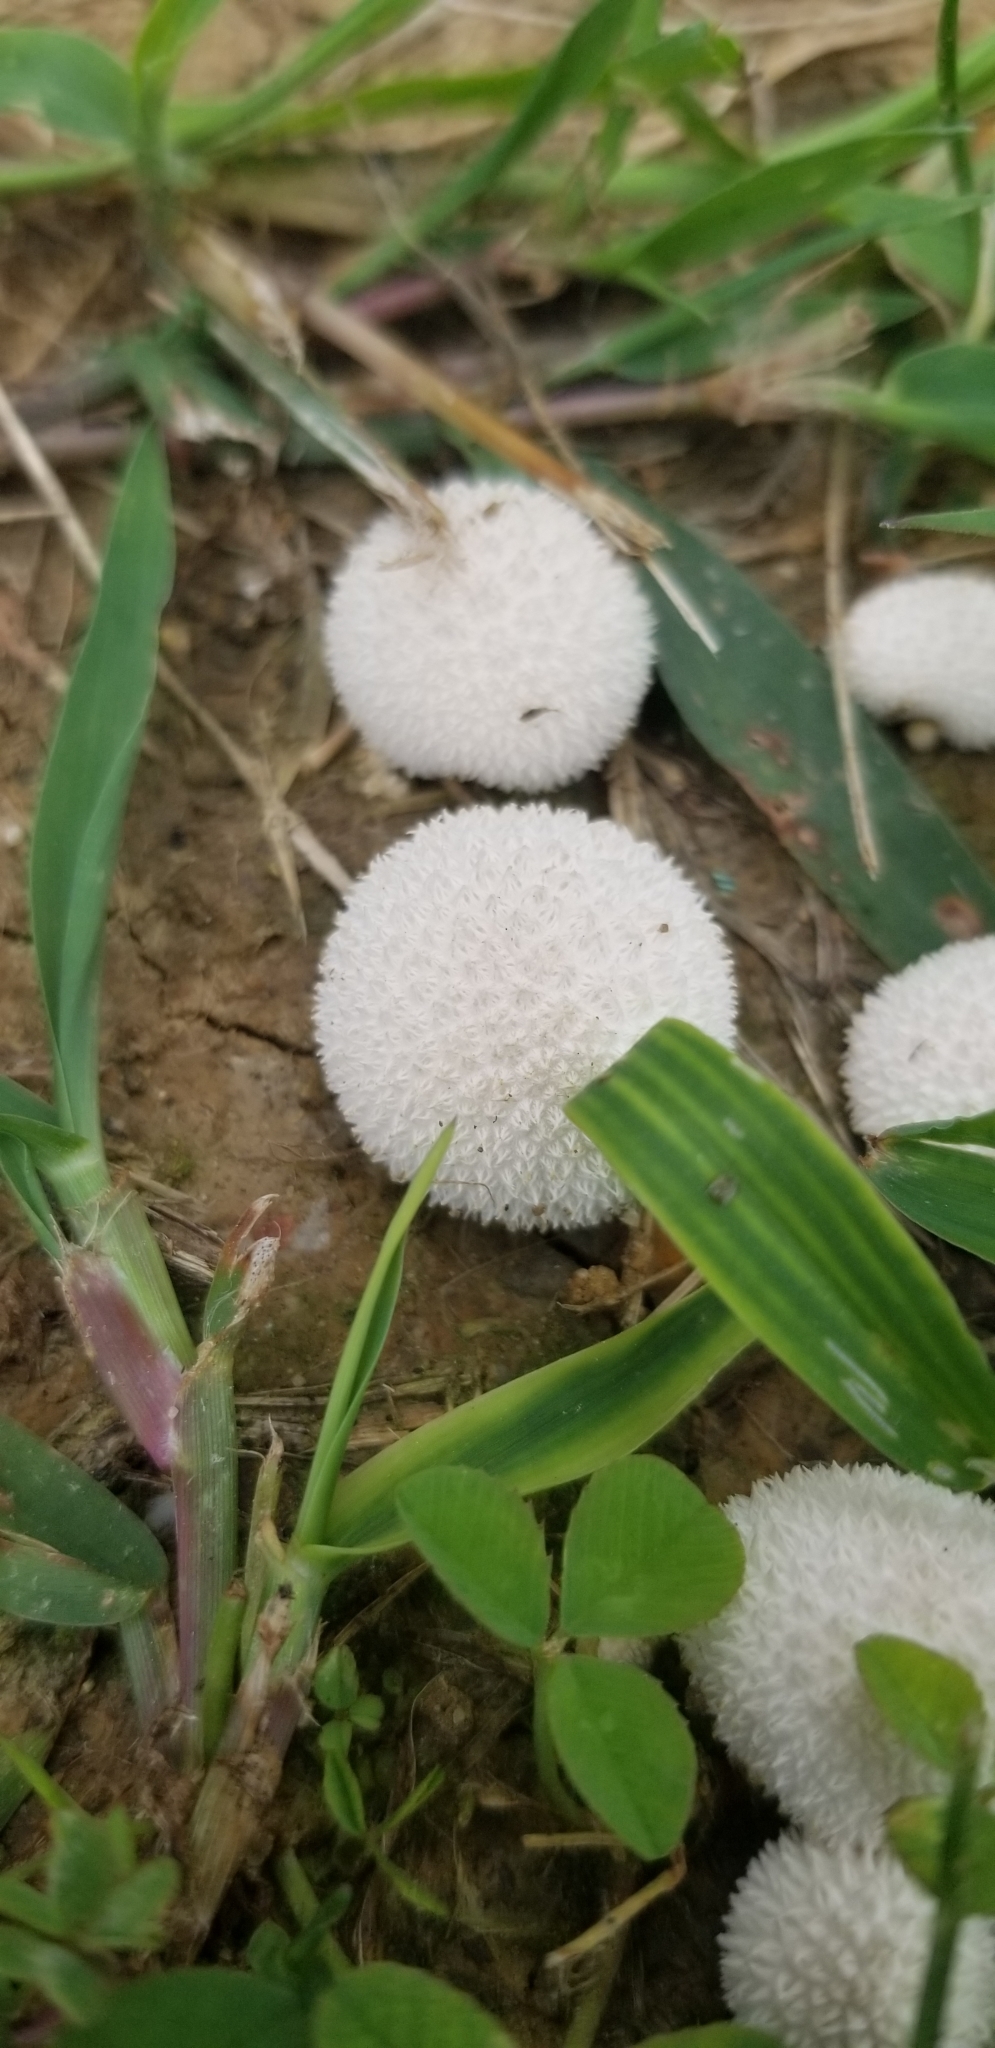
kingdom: Fungi
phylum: Basidiomycota
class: Agaricomycetes
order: Agaricales
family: Lycoperdaceae
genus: Lycoperdon
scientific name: Lycoperdon curtisii
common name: Curtis's puffball
